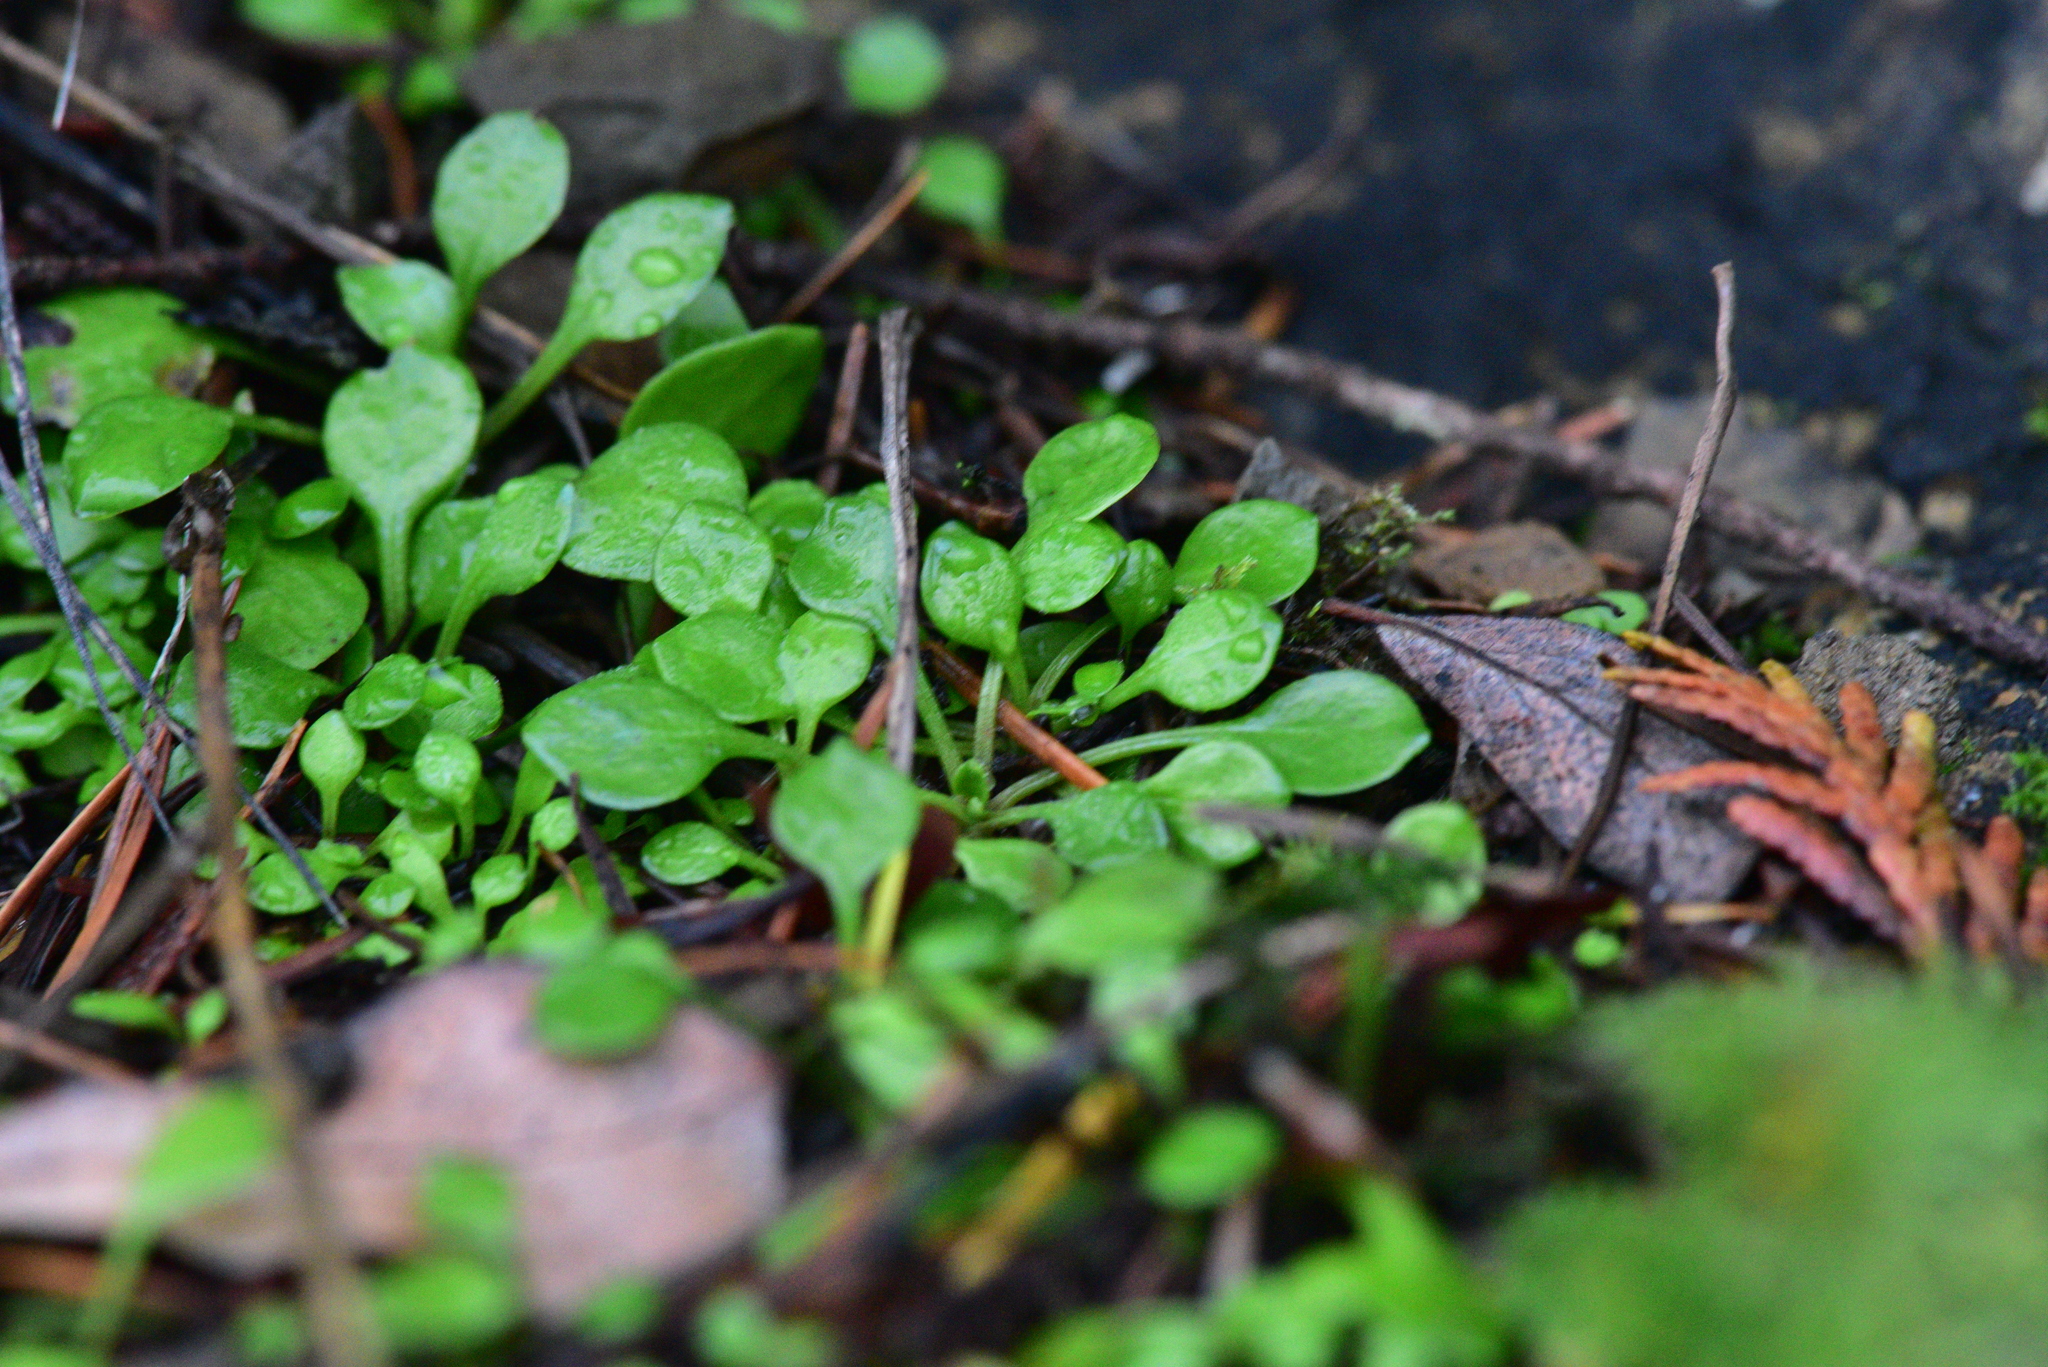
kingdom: Plantae
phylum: Tracheophyta
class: Magnoliopsida
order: Caryophyllales
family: Montiaceae
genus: Montia
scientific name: Montia parvifolia
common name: Small-leaved blinks
